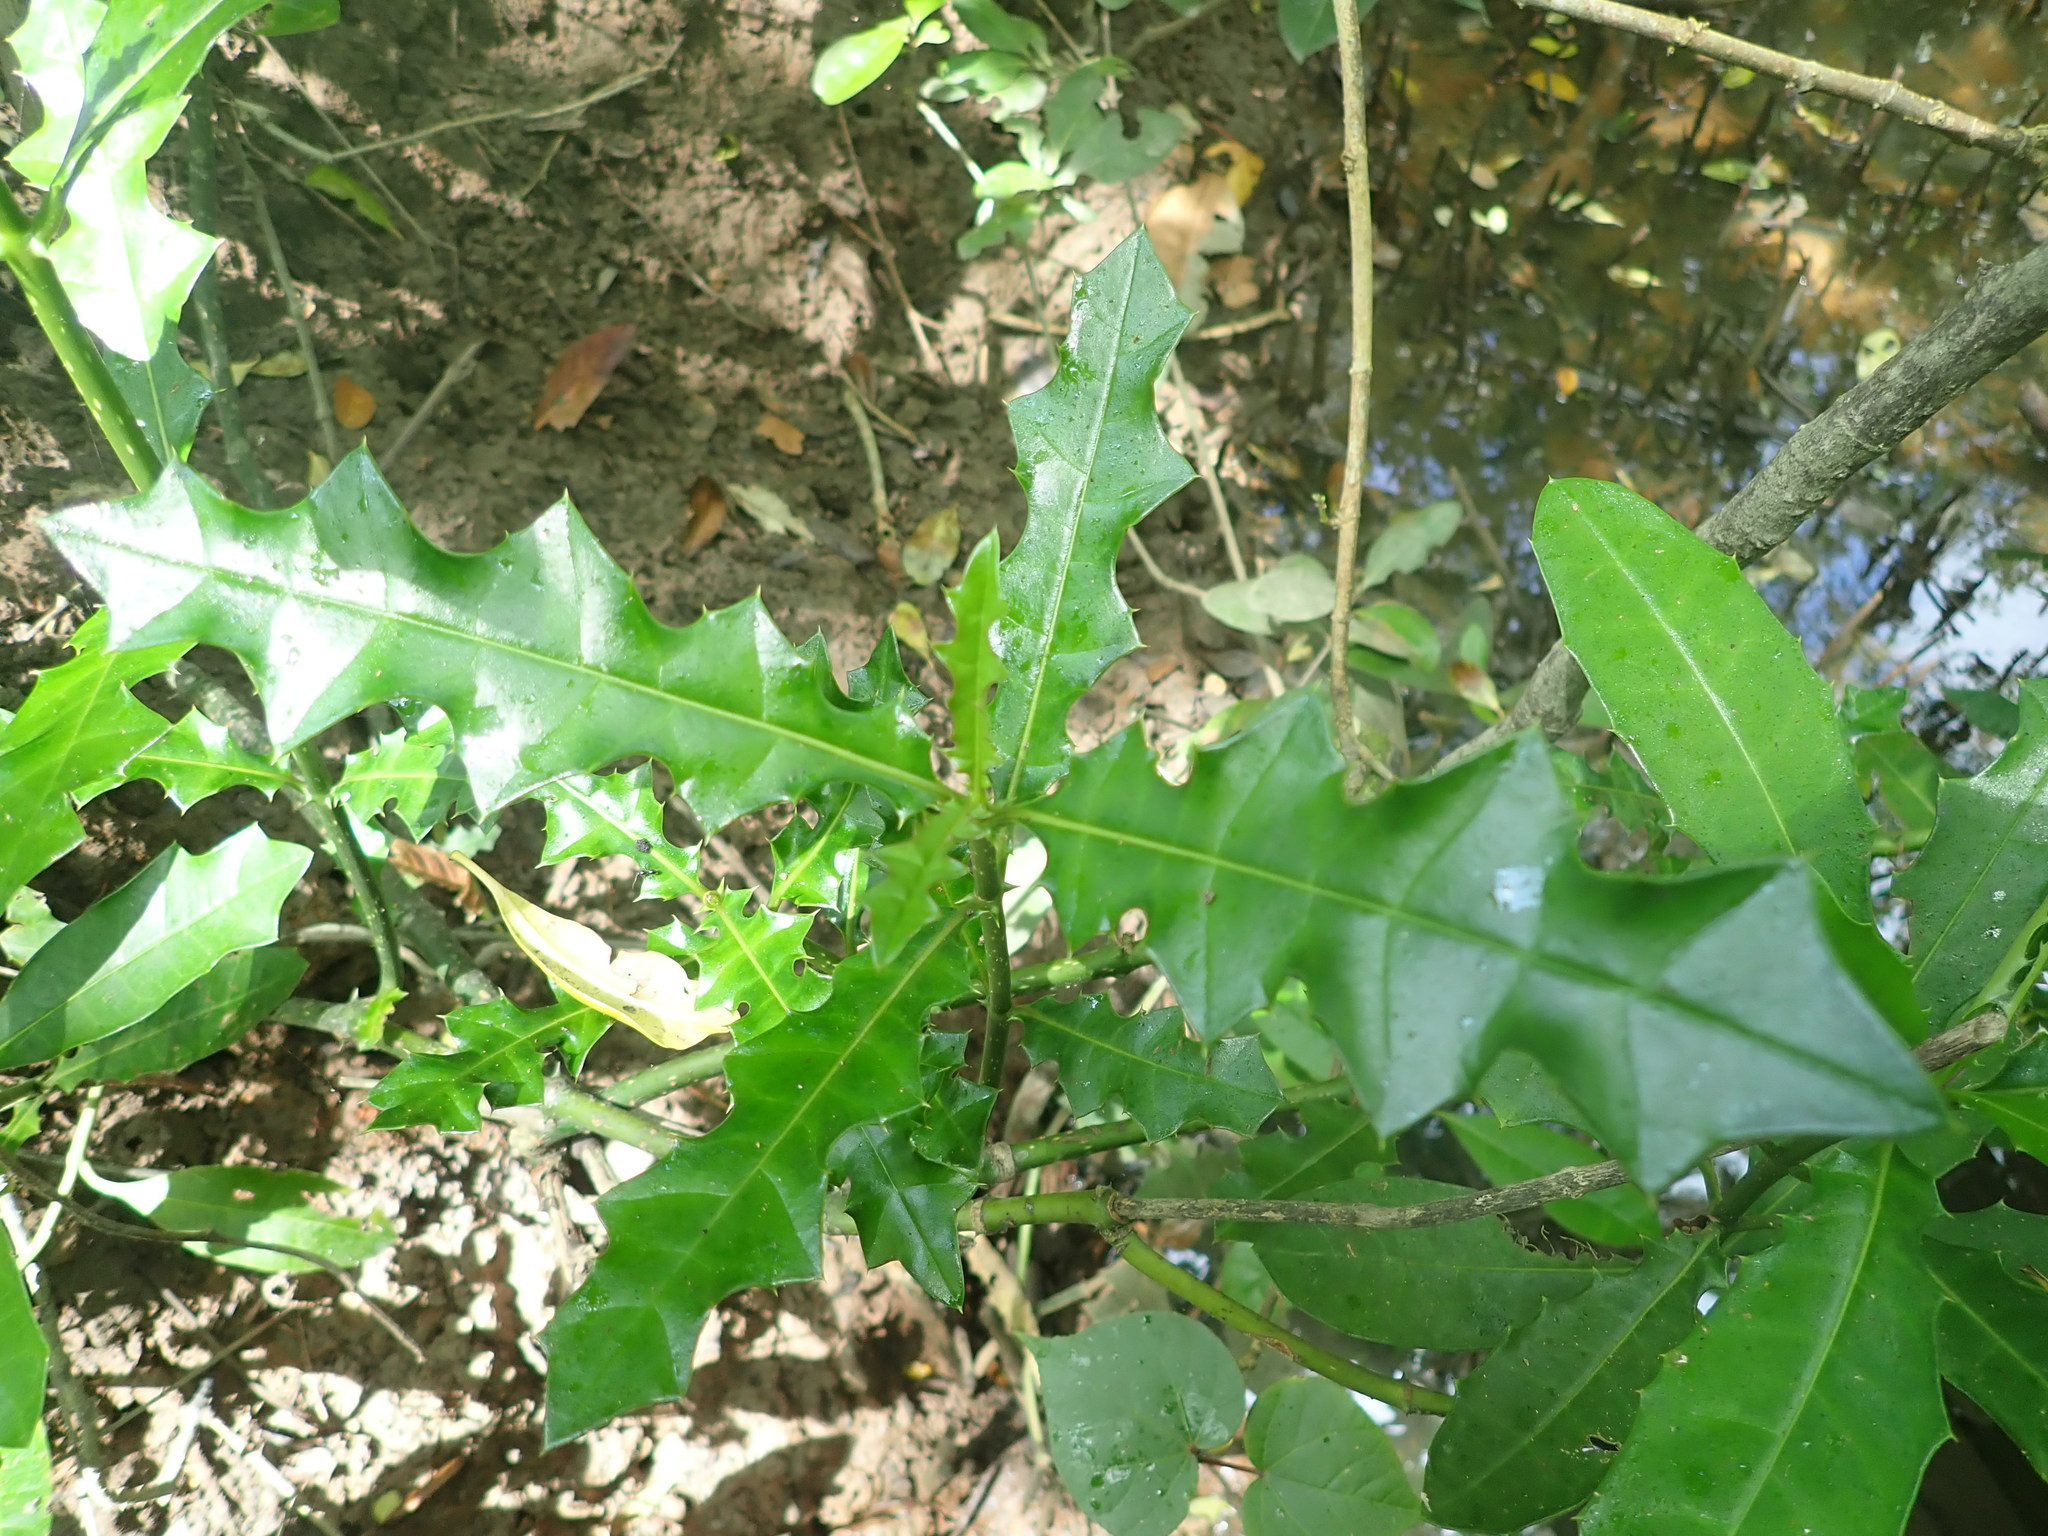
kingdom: Plantae
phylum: Tracheophyta
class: Magnoliopsida
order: Lamiales
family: Acanthaceae
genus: Acanthus
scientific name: Acanthus ebracteatus
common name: Acanthus
